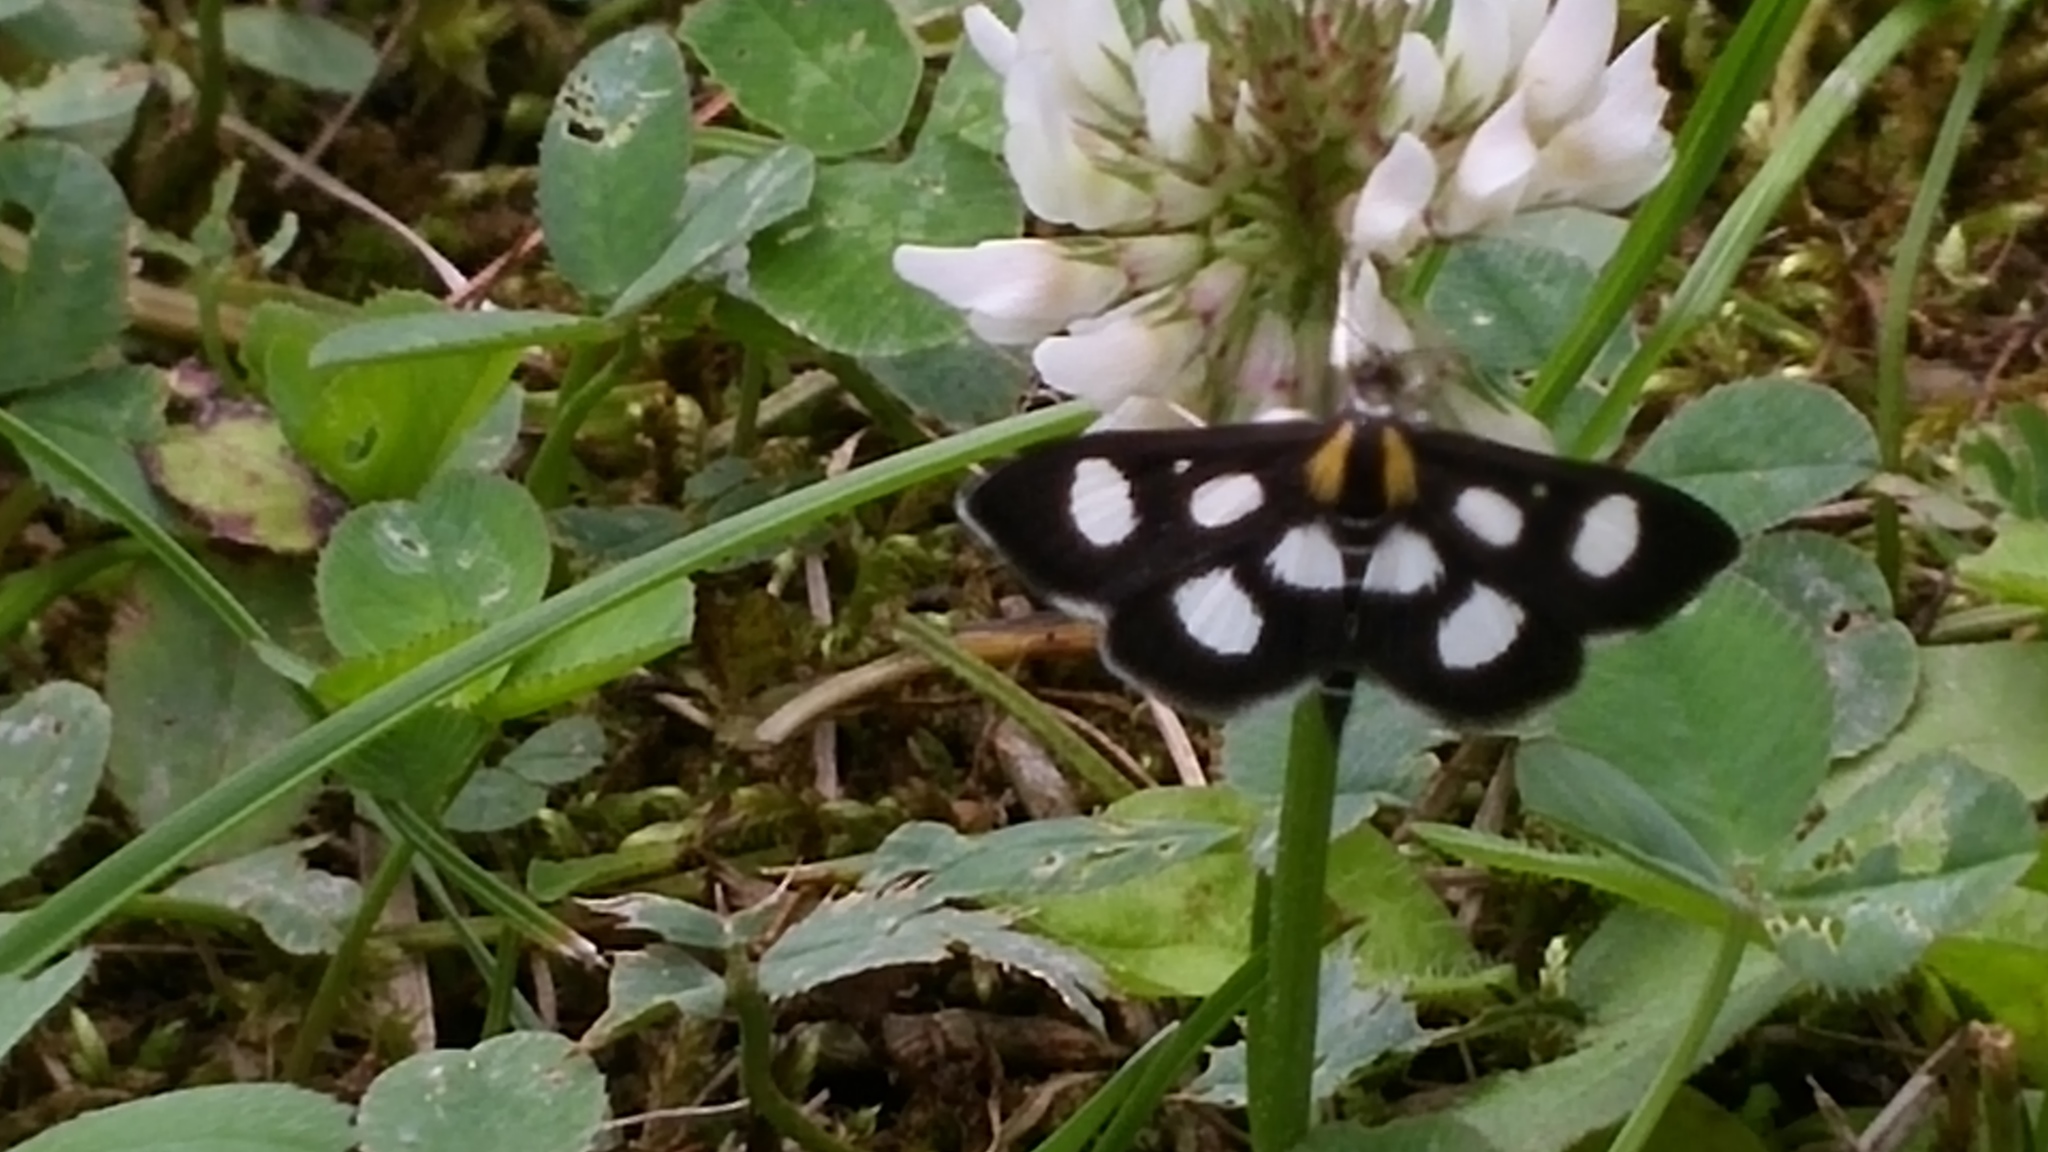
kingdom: Animalia
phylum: Arthropoda
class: Insecta
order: Lepidoptera
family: Crambidae
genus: Anania
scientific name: Anania funebris
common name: White-spotted sable moth
